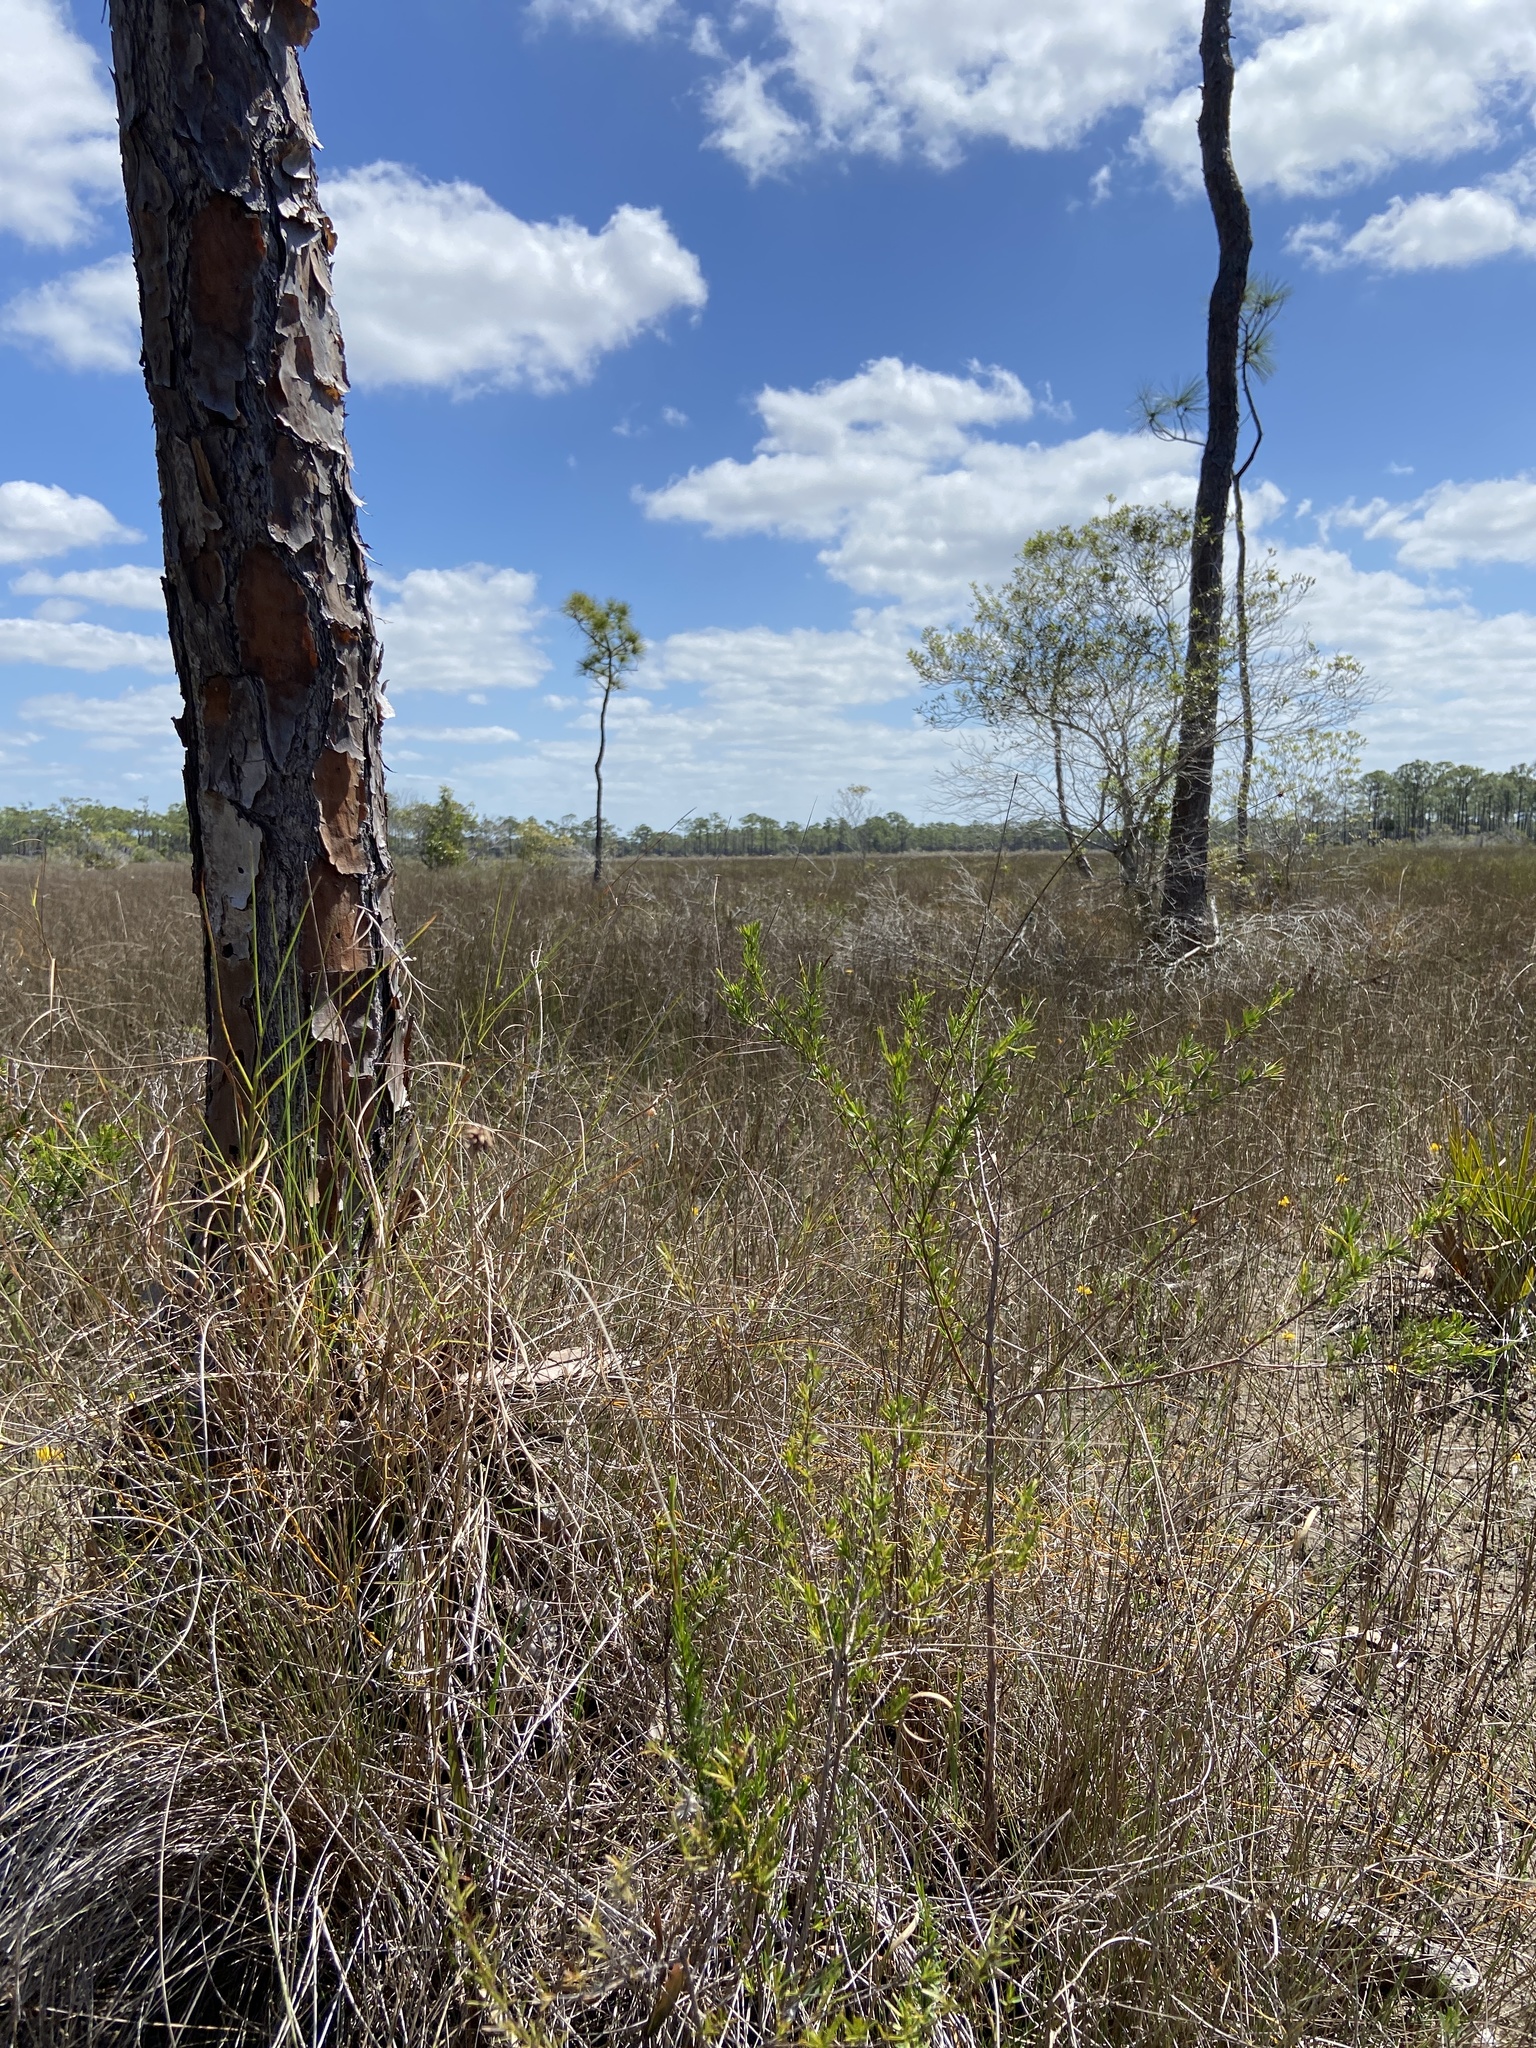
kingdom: Plantae
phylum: Tracheophyta
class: Magnoliopsida
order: Lamiales
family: Lentibulariaceae
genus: Pinguicula
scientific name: Pinguicula pumila
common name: Small butterwort
